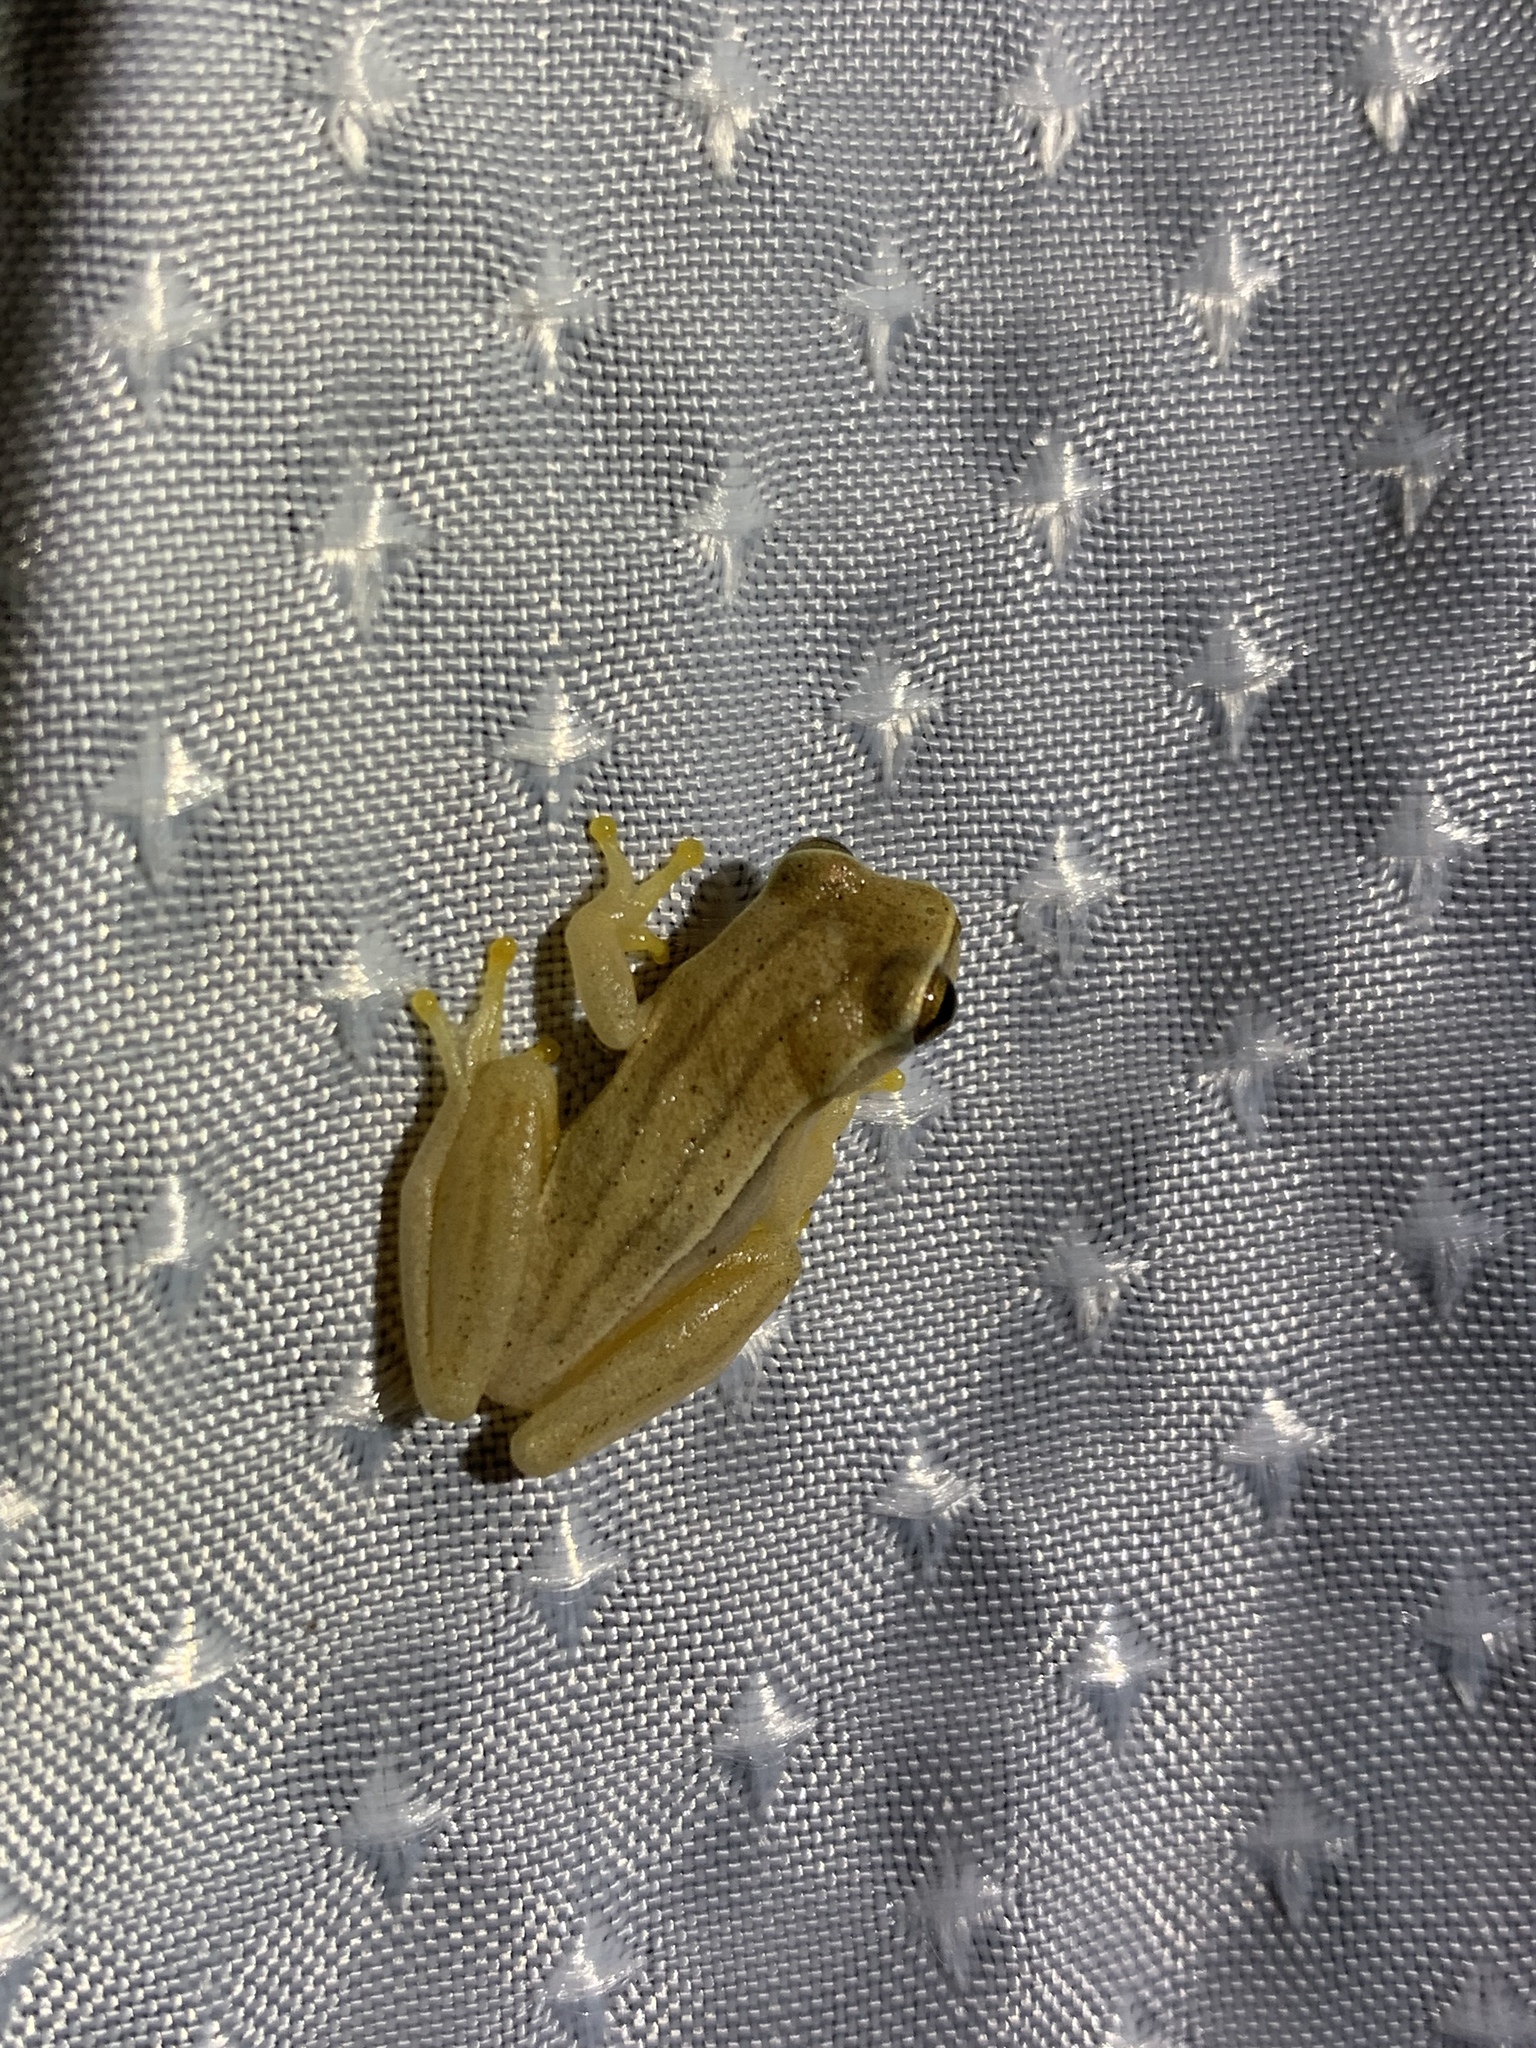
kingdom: Animalia
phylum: Chordata
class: Amphibia
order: Anura
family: Hylidae
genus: Dendropsophus
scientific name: Dendropsophus microcephalus
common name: Small-headed treefrog
